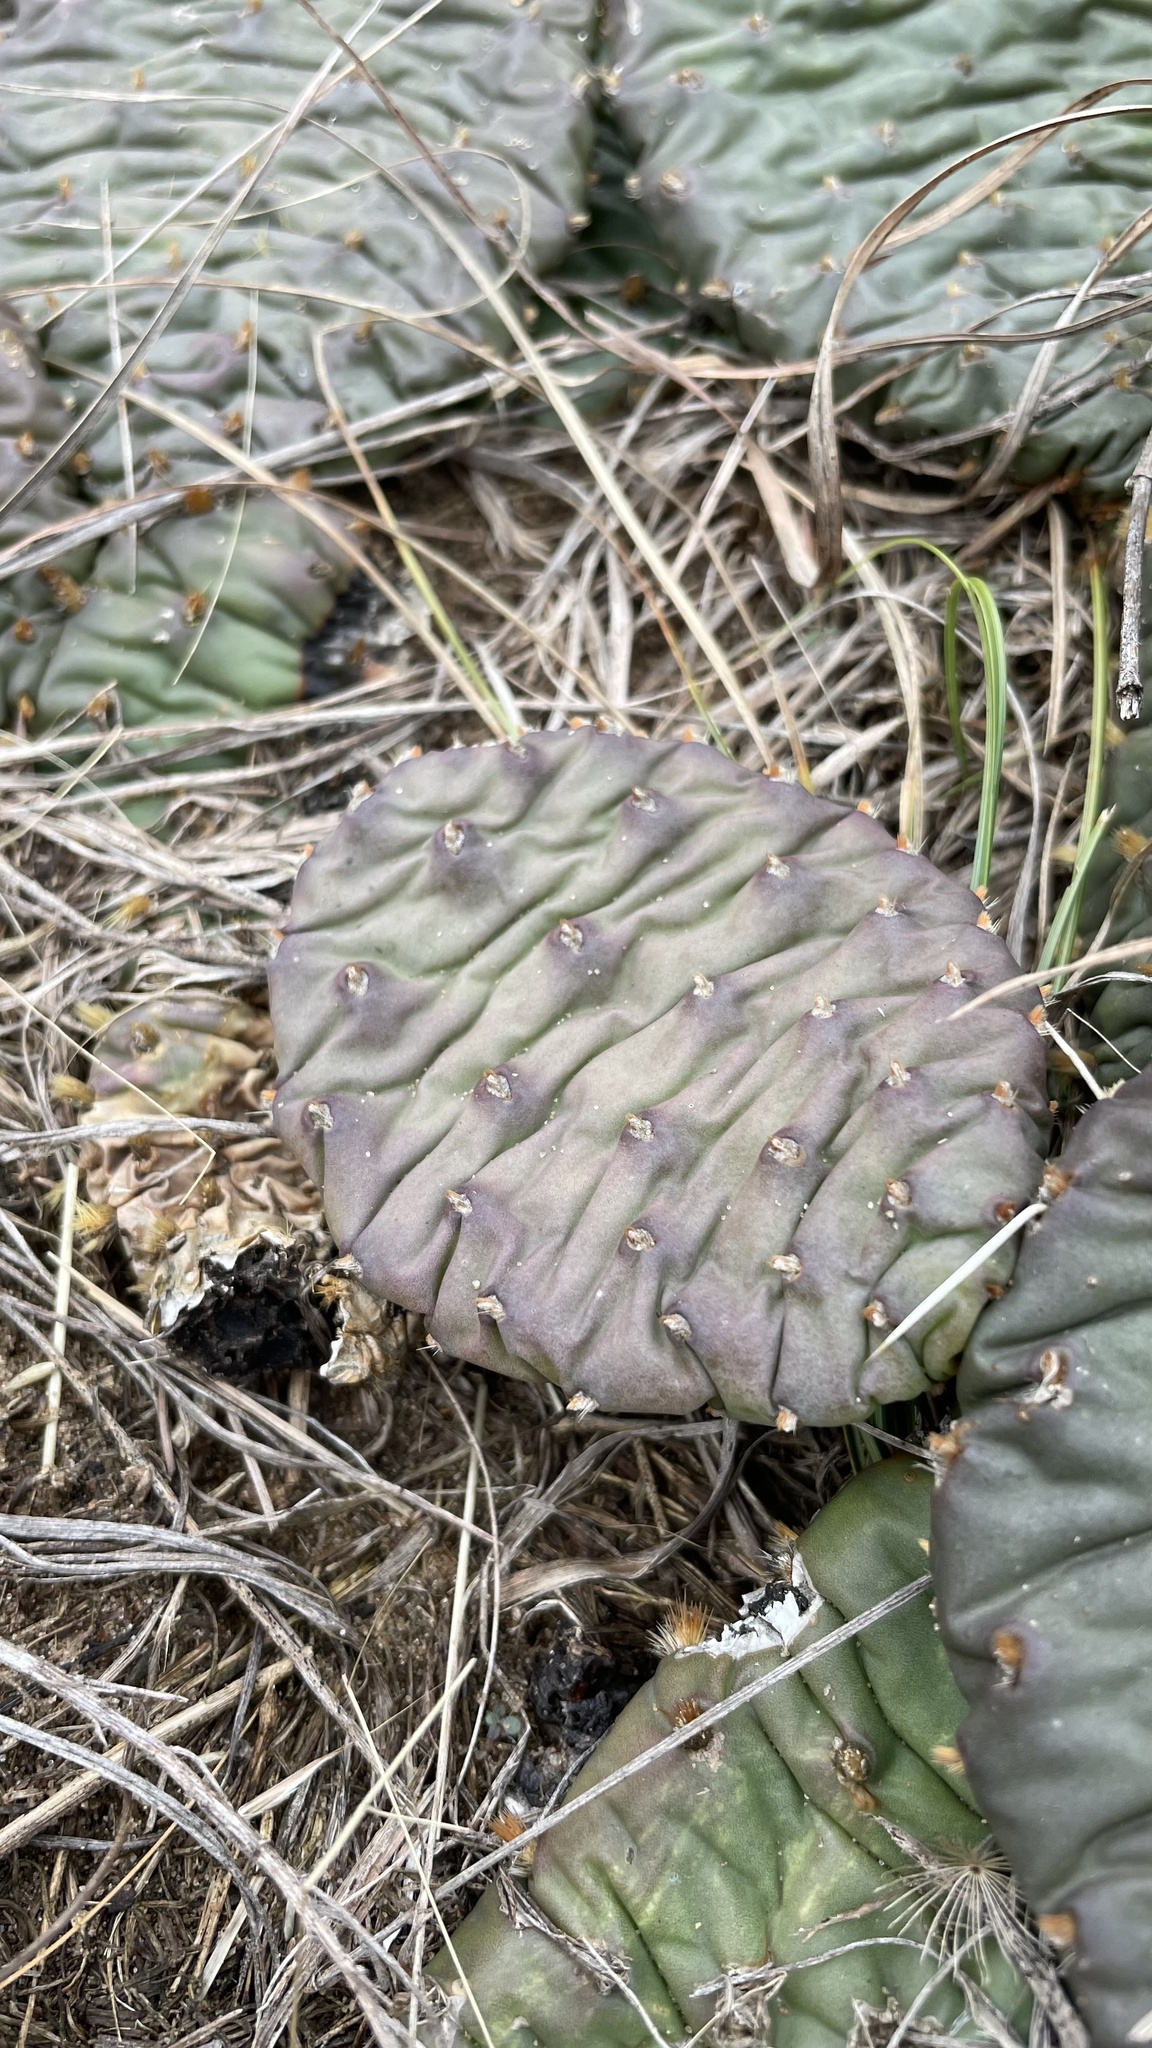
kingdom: Plantae
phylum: Tracheophyta
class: Magnoliopsida
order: Caryophyllales
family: Cactaceae
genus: Opuntia
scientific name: Opuntia macrorhiza
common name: Grassland pricklypear
